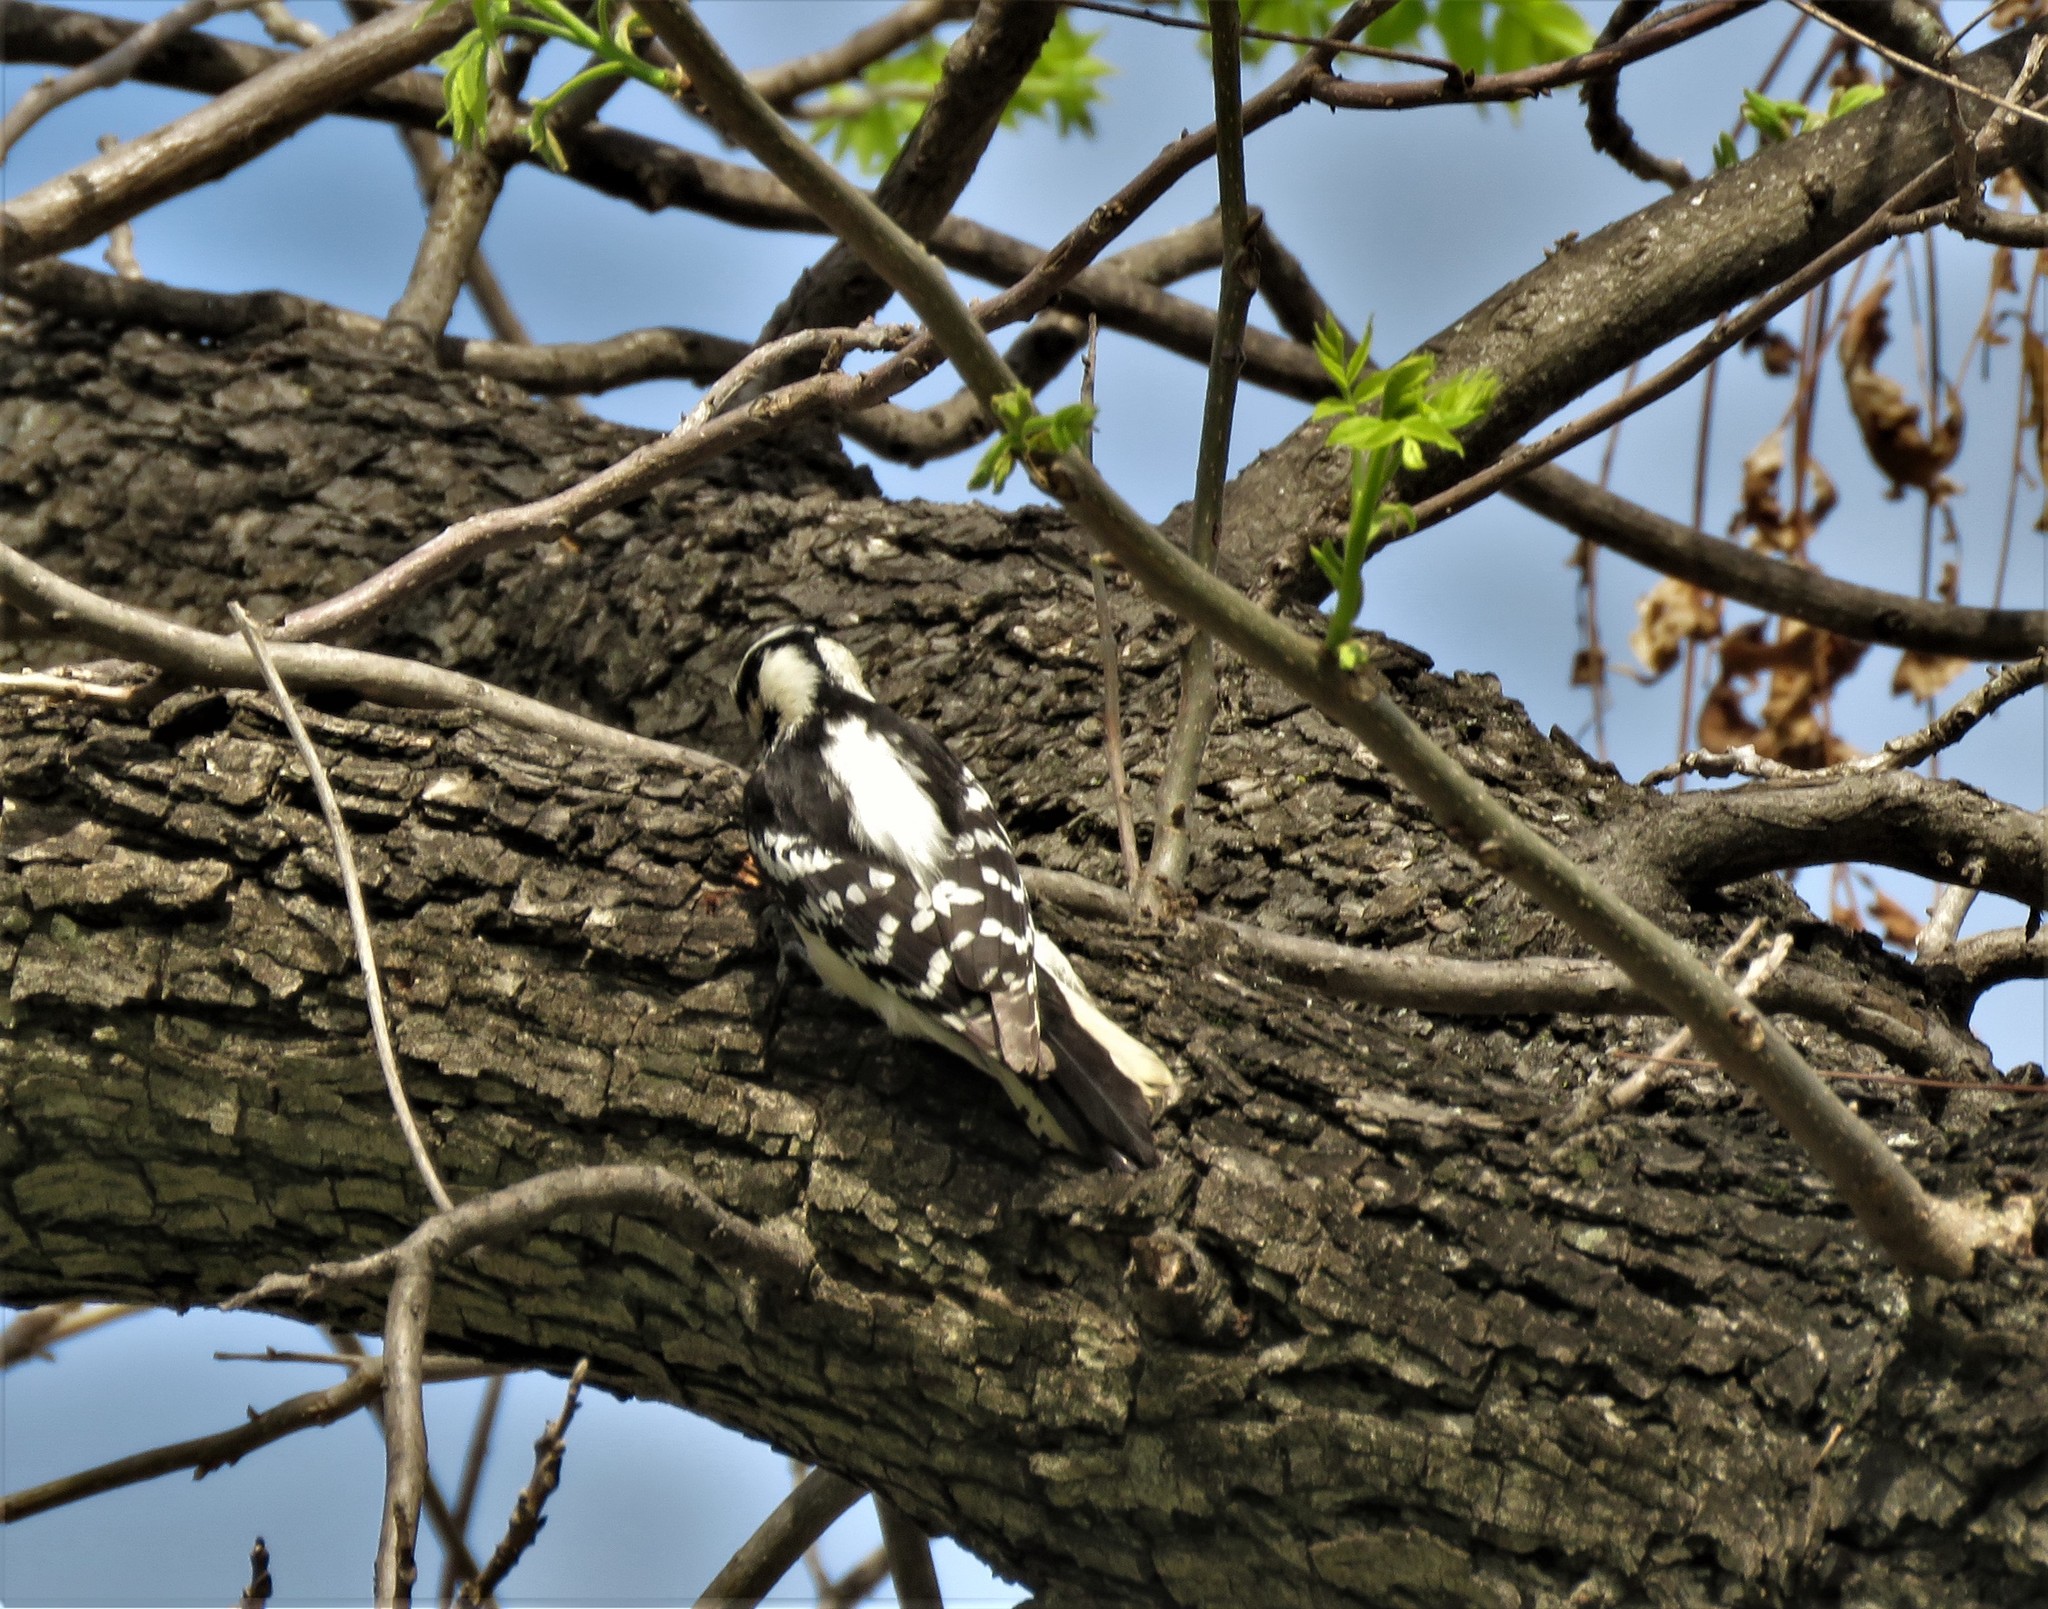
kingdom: Animalia
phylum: Chordata
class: Aves
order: Piciformes
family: Picidae
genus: Dryobates
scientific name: Dryobates pubescens
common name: Downy woodpecker
